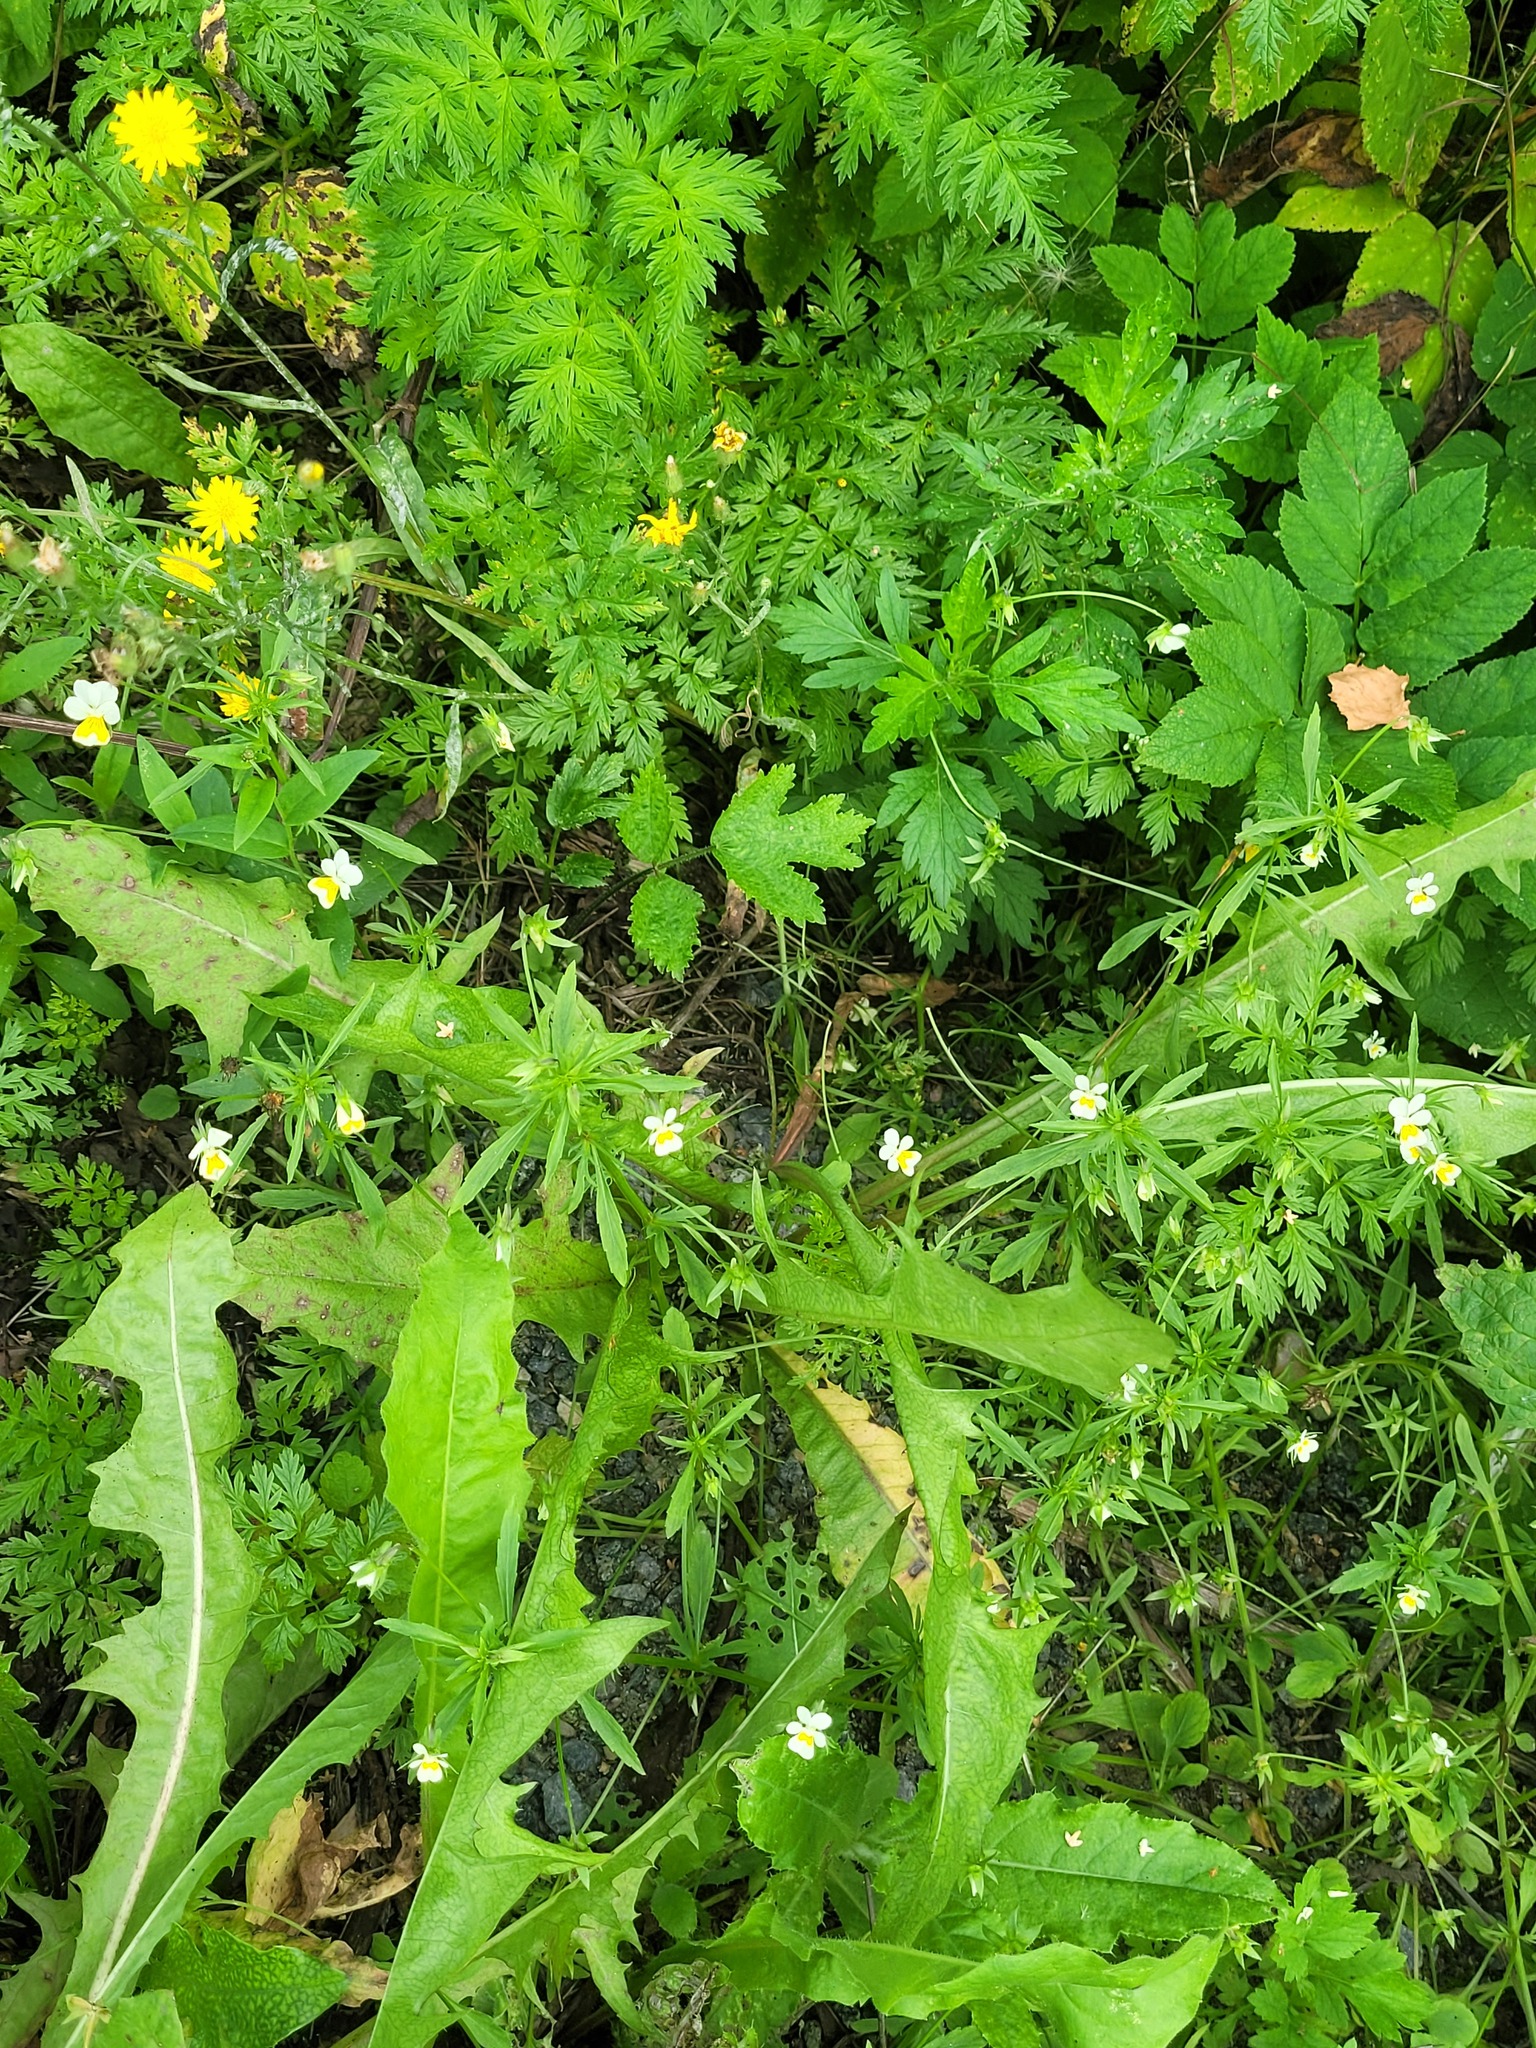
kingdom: Plantae
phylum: Tracheophyta
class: Magnoliopsida
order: Malpighiales
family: Violaceae
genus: Viola
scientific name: Viola arvensis
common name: Field pansy
